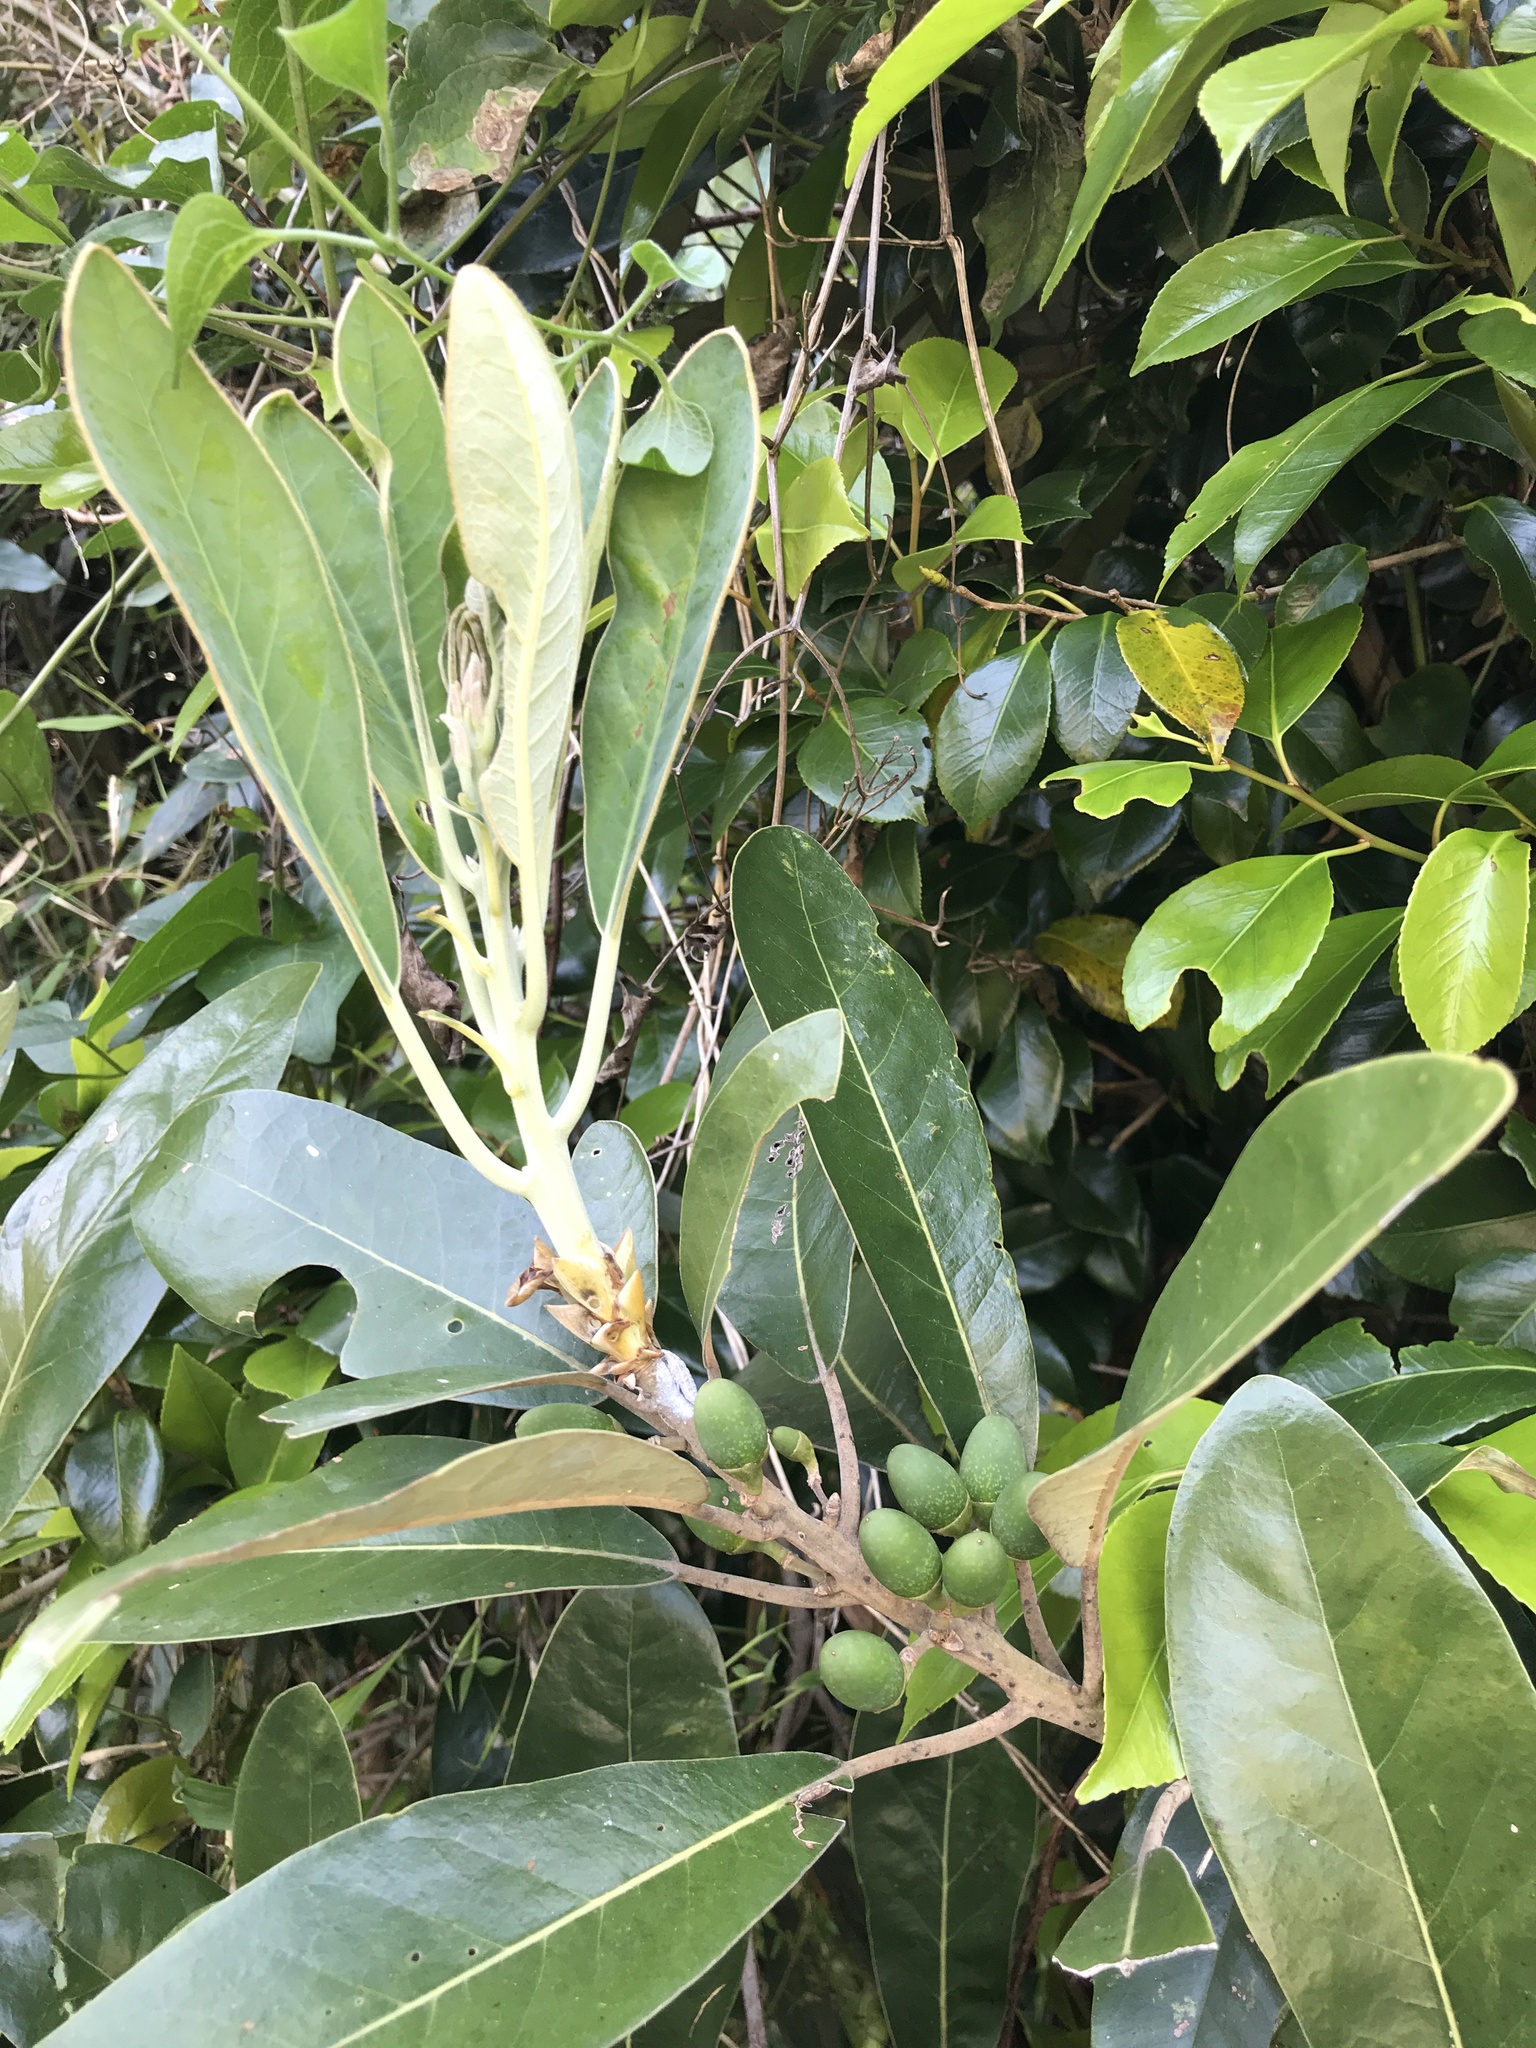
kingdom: Plantae
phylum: Tracheophyta
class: Magnoliopsida
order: Laurales
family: Lauraceae
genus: Litsea
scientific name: Litsea japonica
